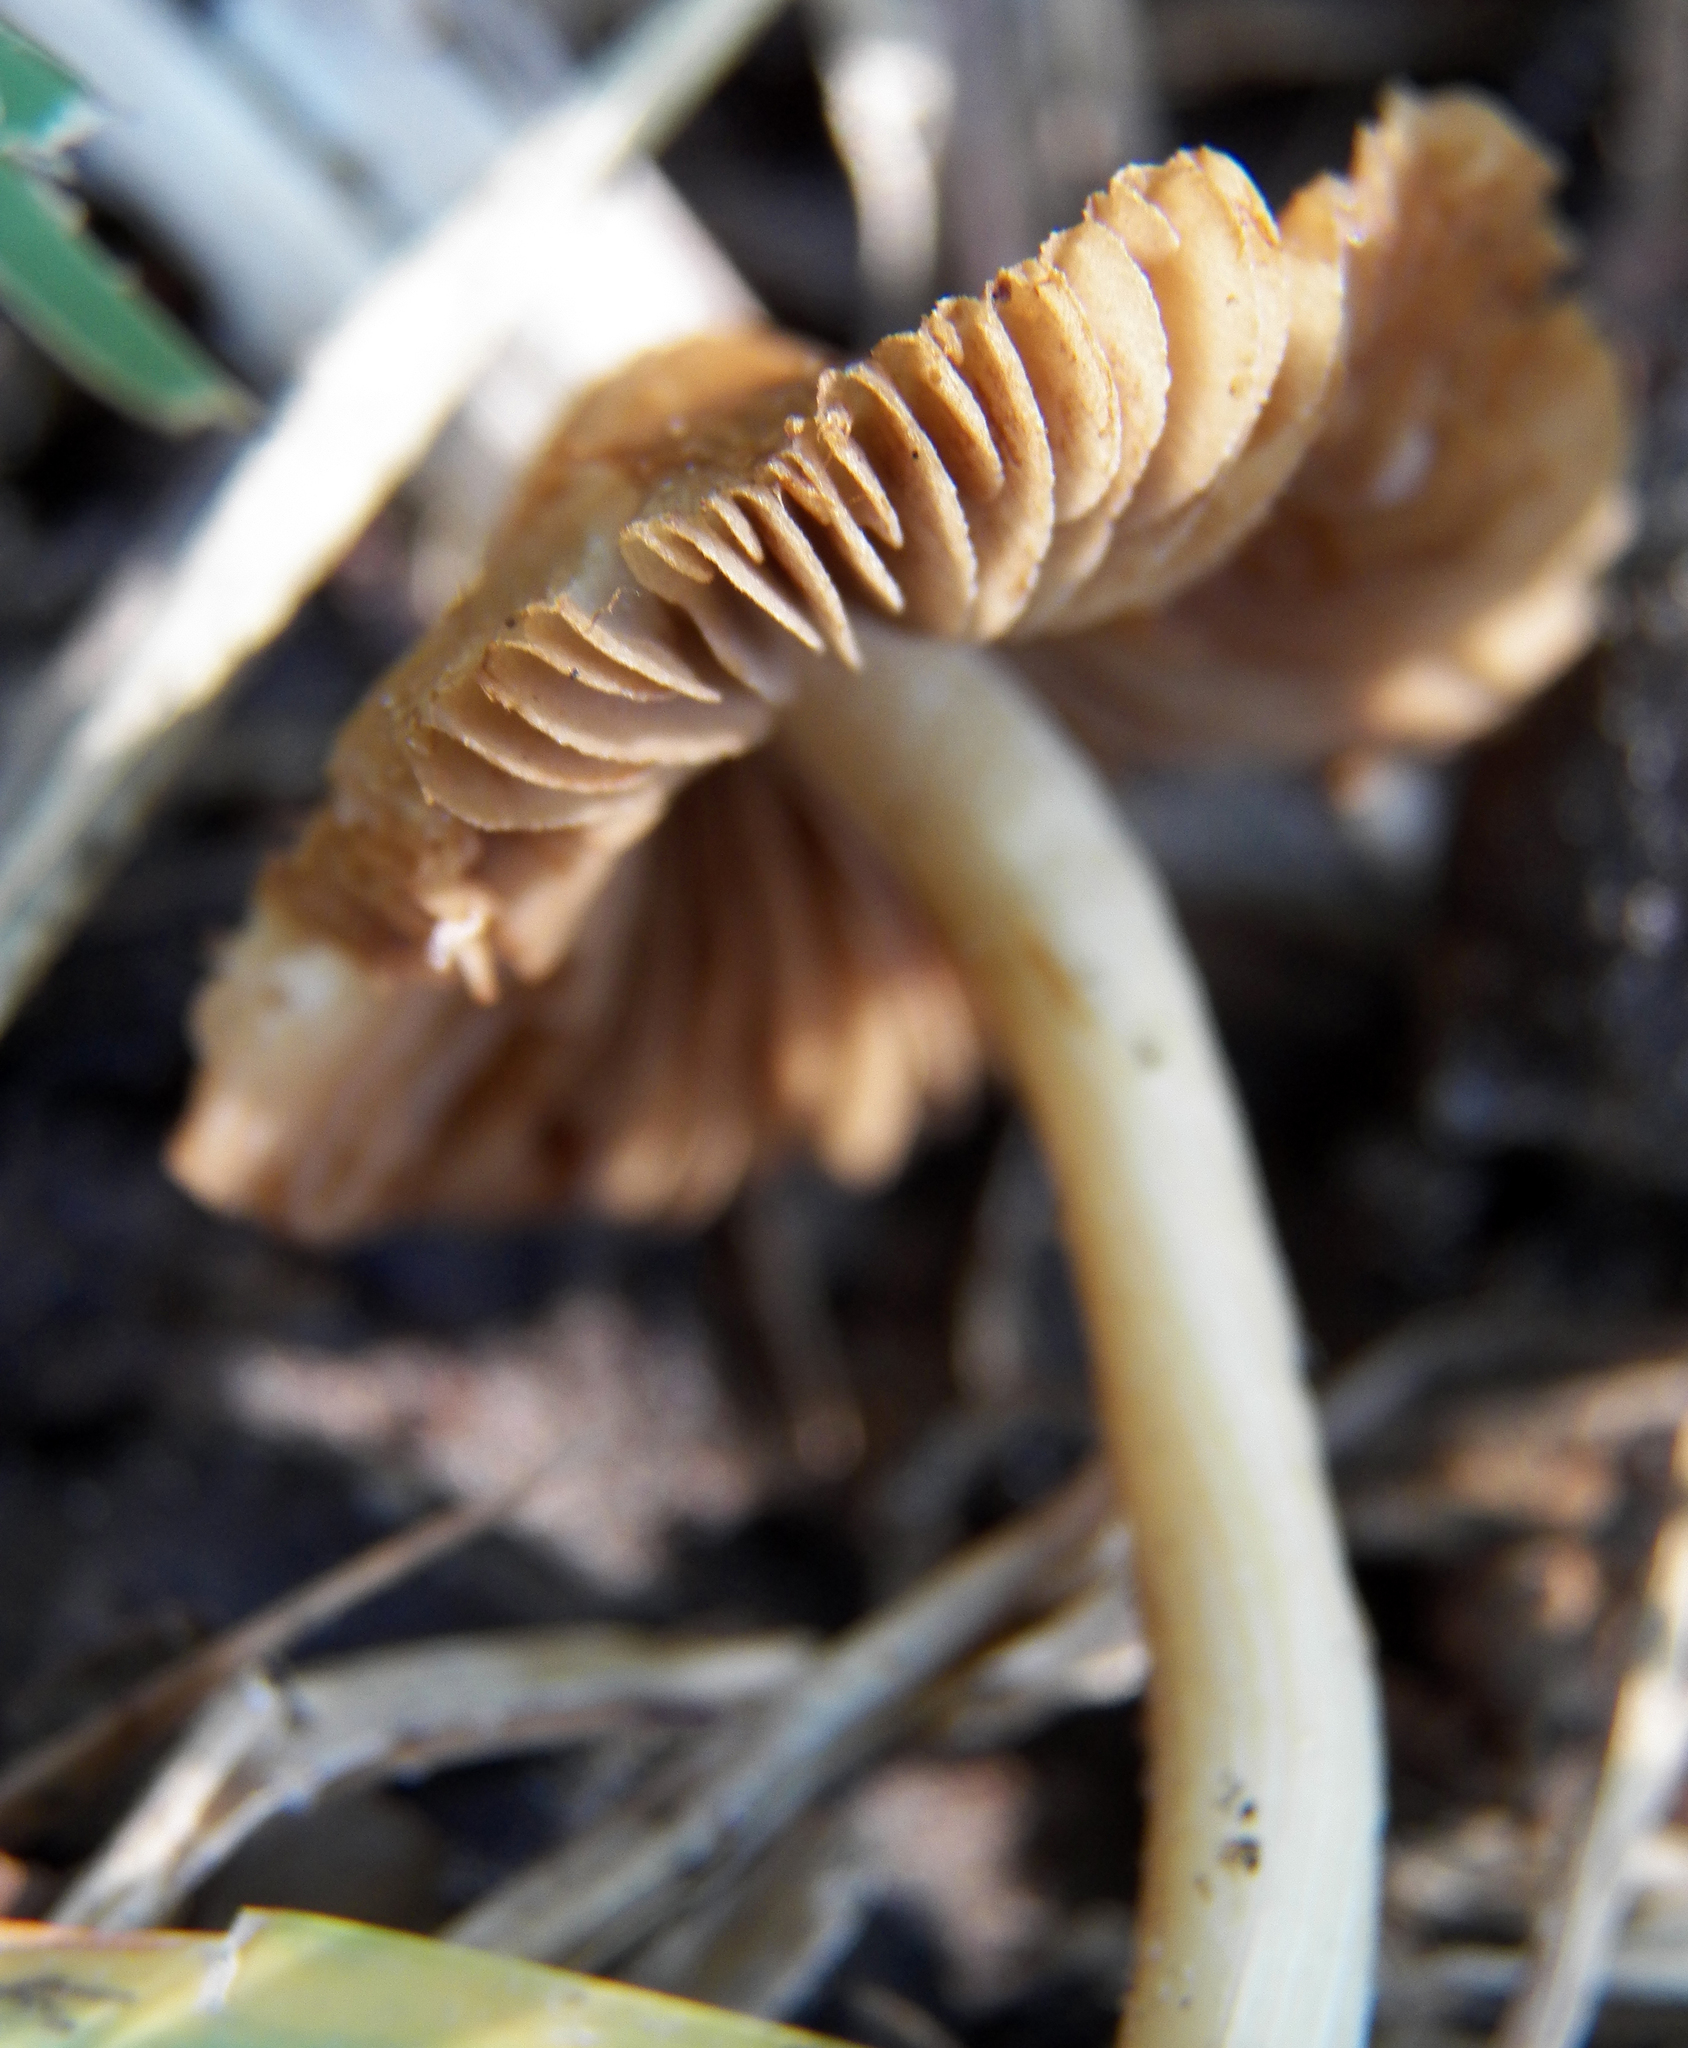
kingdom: Fungi
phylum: Basidiomycota
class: Agaricomycetes
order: Agaricales
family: Marasmiaceae
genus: Marasmius
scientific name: Marasmius oreades
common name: Fairy ring champignon
